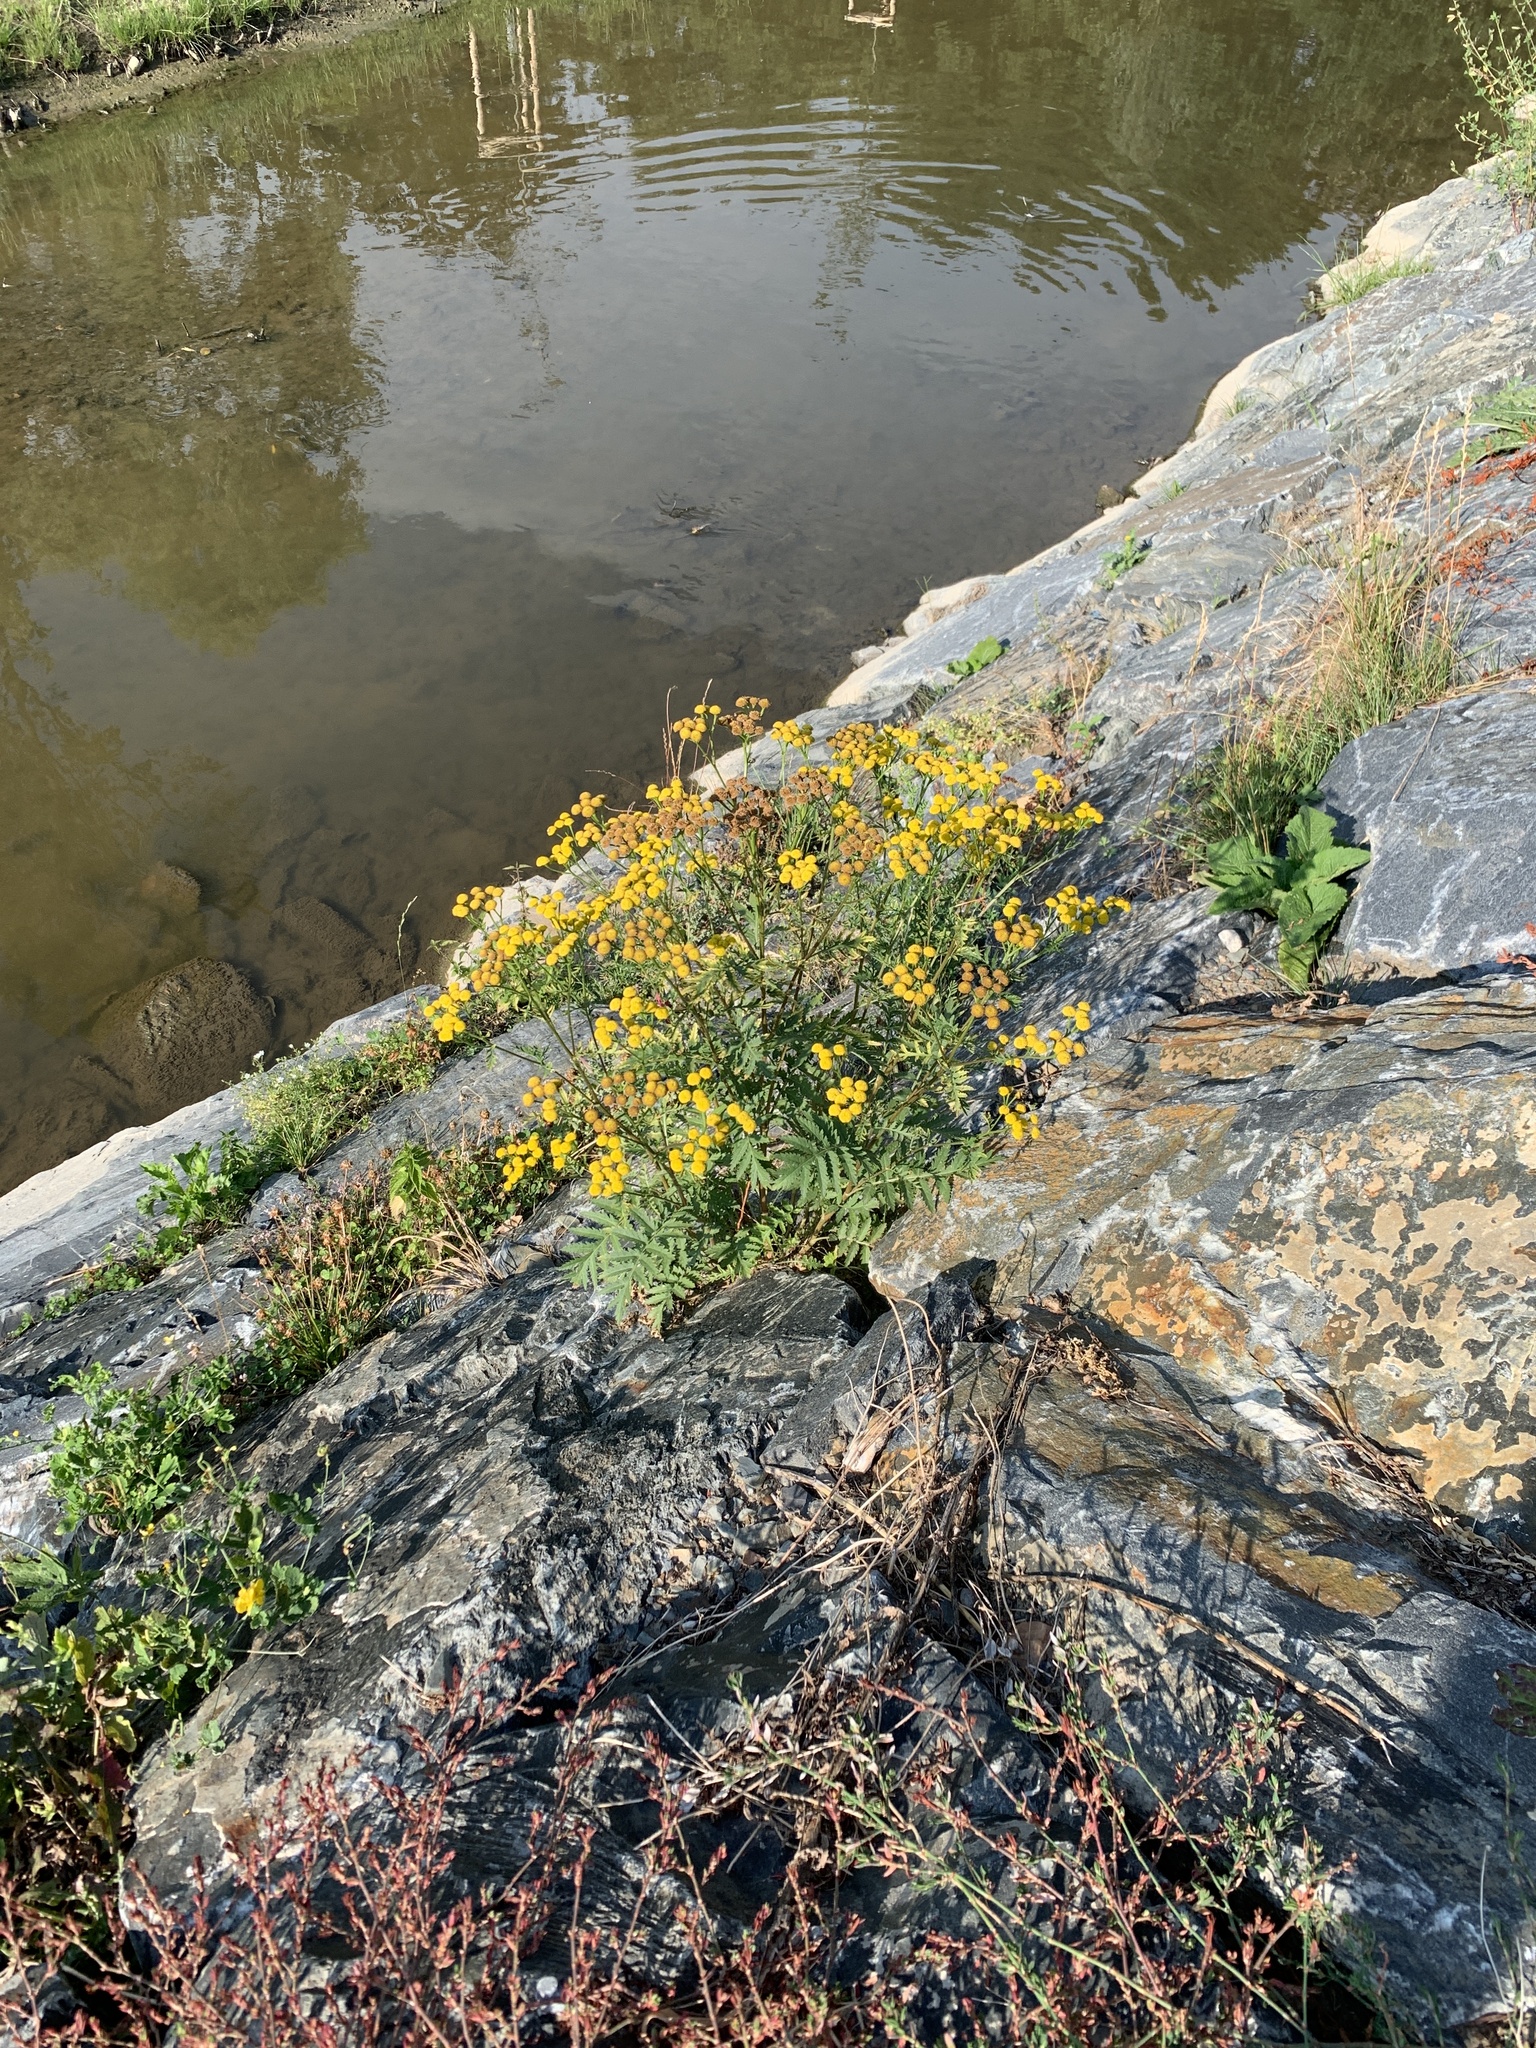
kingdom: Plantae
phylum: Tracheophyta
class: Magnoliopsida
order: Asterales
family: Asteraceae
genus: Tanacetum
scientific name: Tanacetum vulgare
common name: Common tansy
